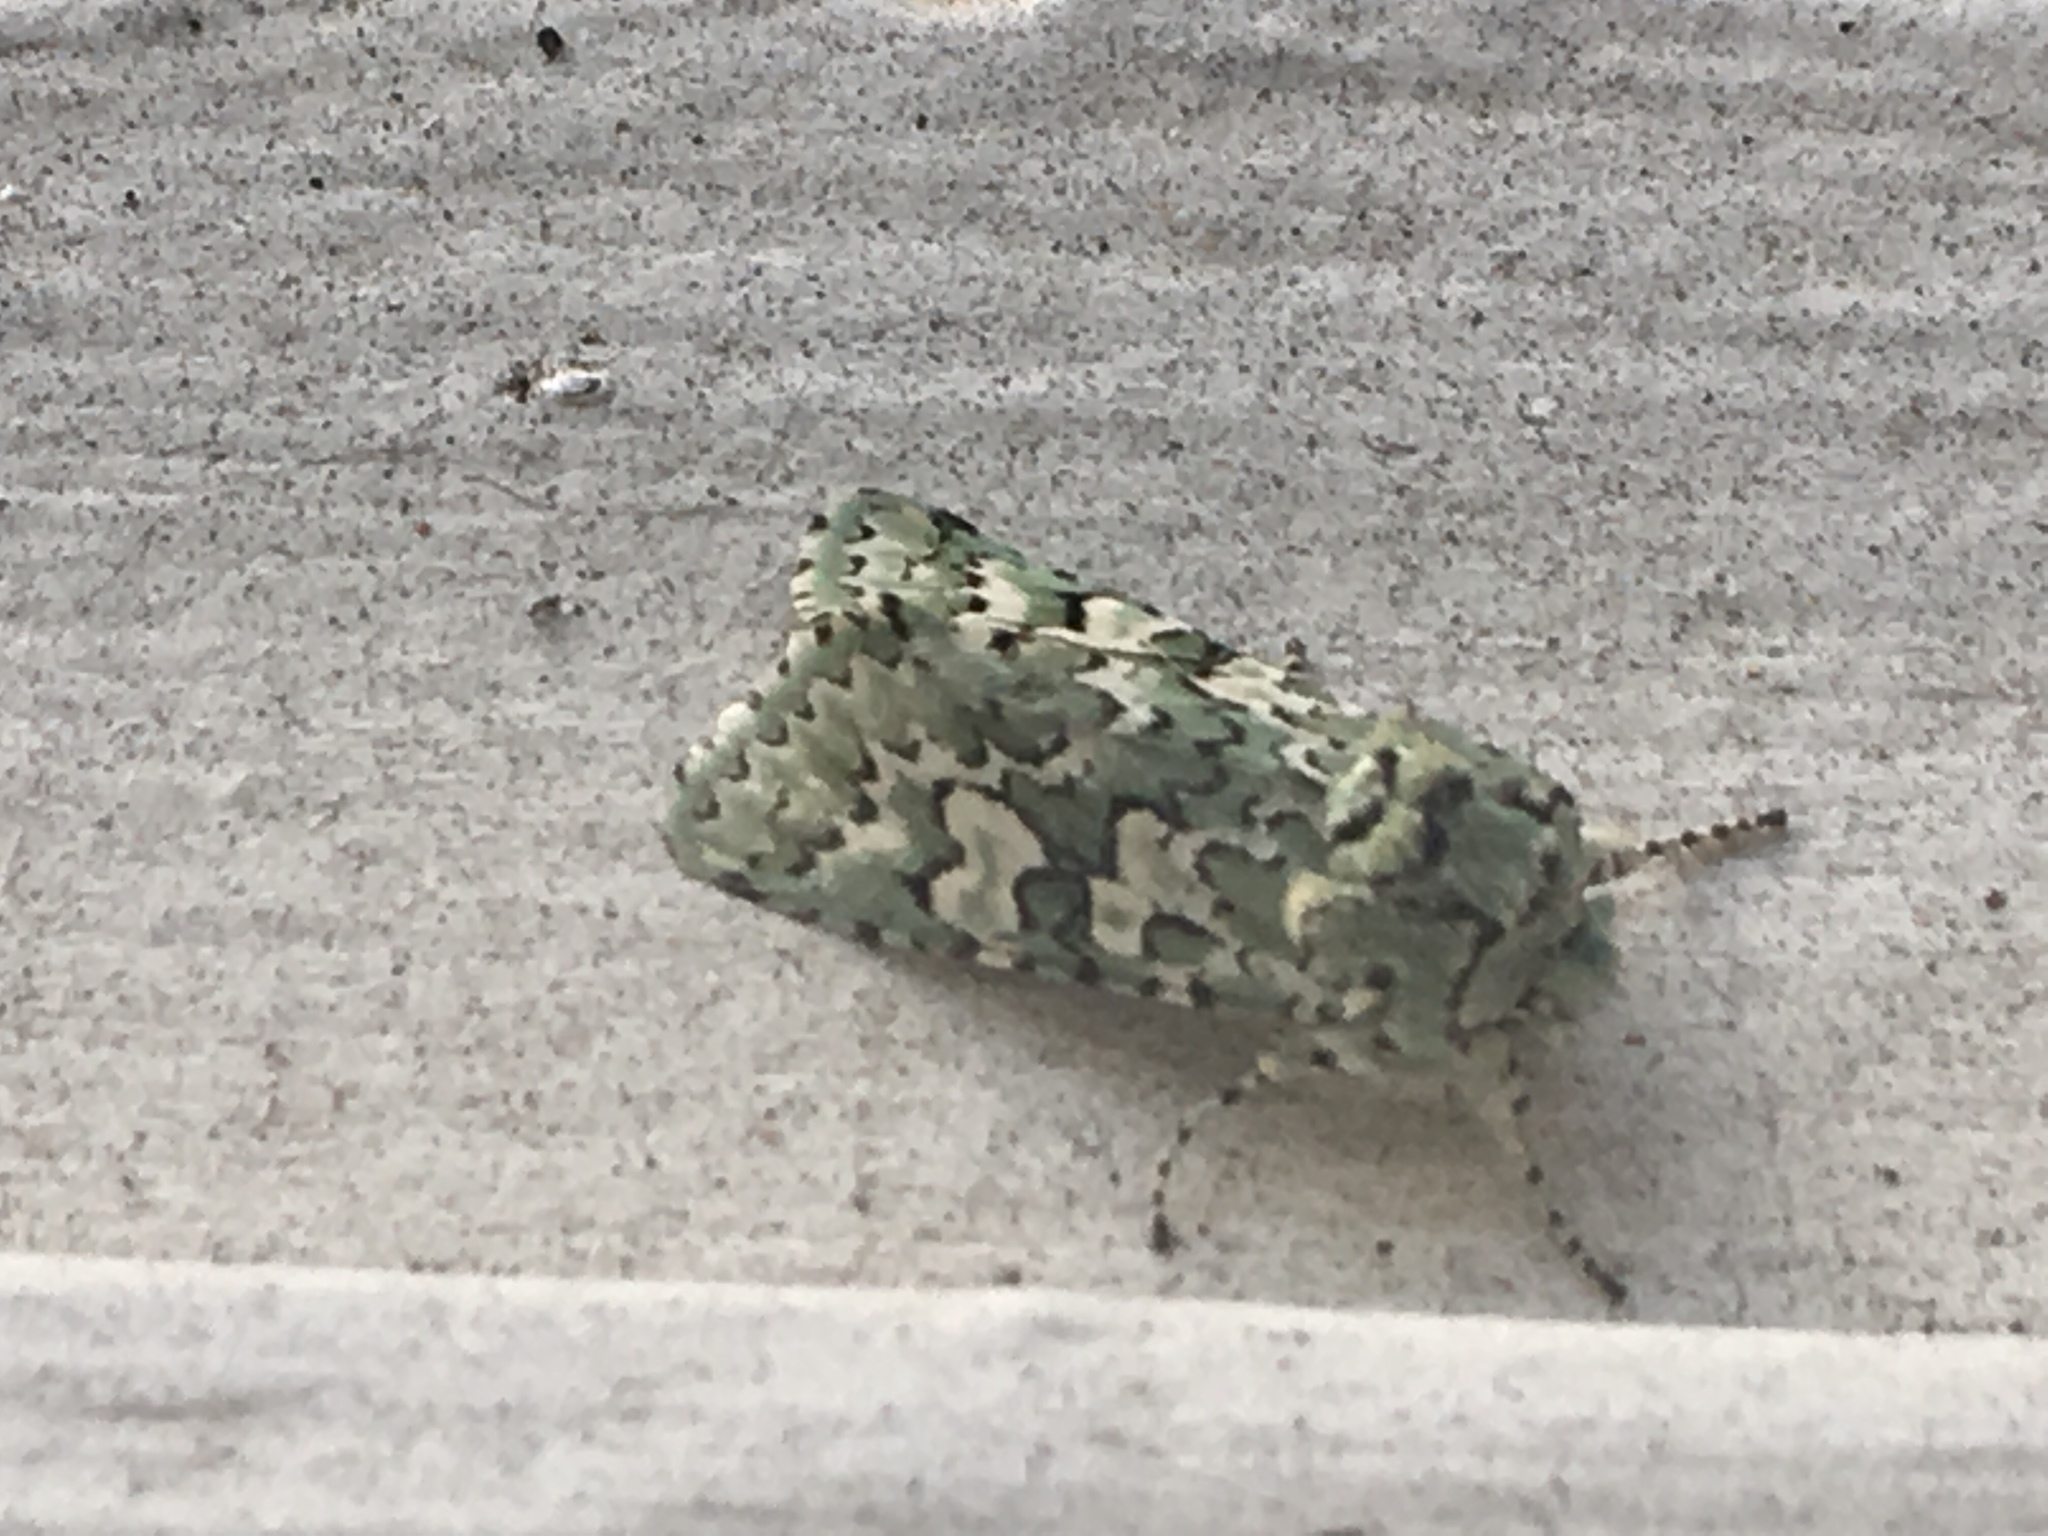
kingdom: Animalia
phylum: Arthropoda
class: Insecta
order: Lepidoptera
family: Noctuidae
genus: Feralia
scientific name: Feralia februalis
